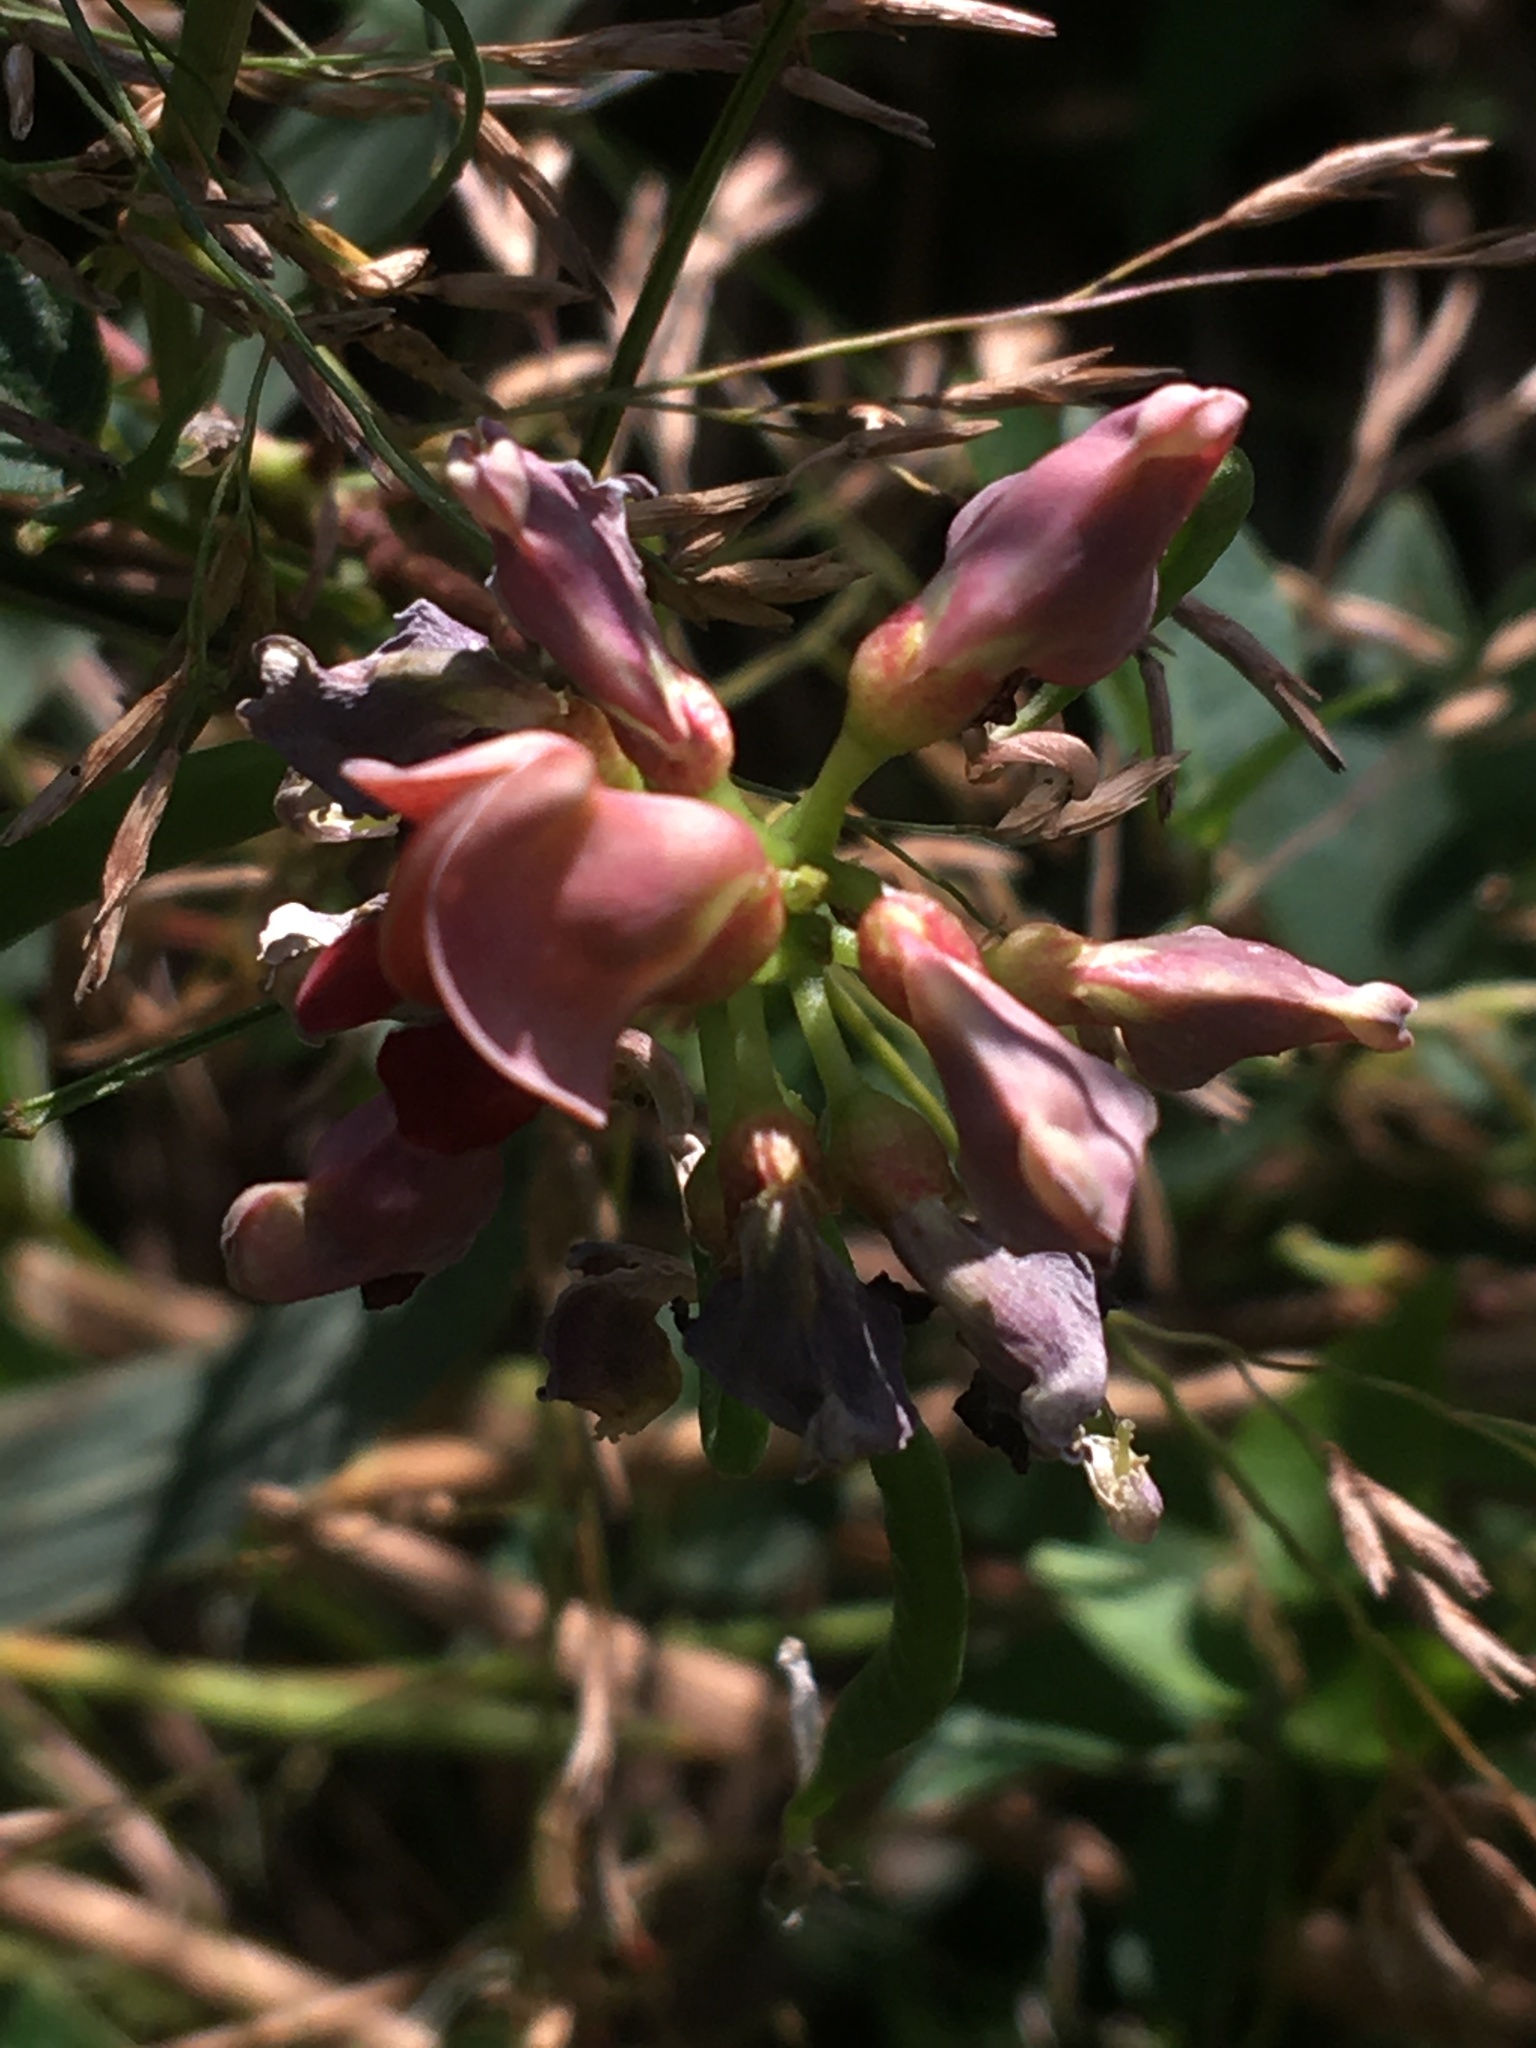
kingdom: Plantae
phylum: Tracheophyta
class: Magnoliopsida
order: Fabales
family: Fabaceae
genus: Apios
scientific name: Apios americana
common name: American potato-bean
